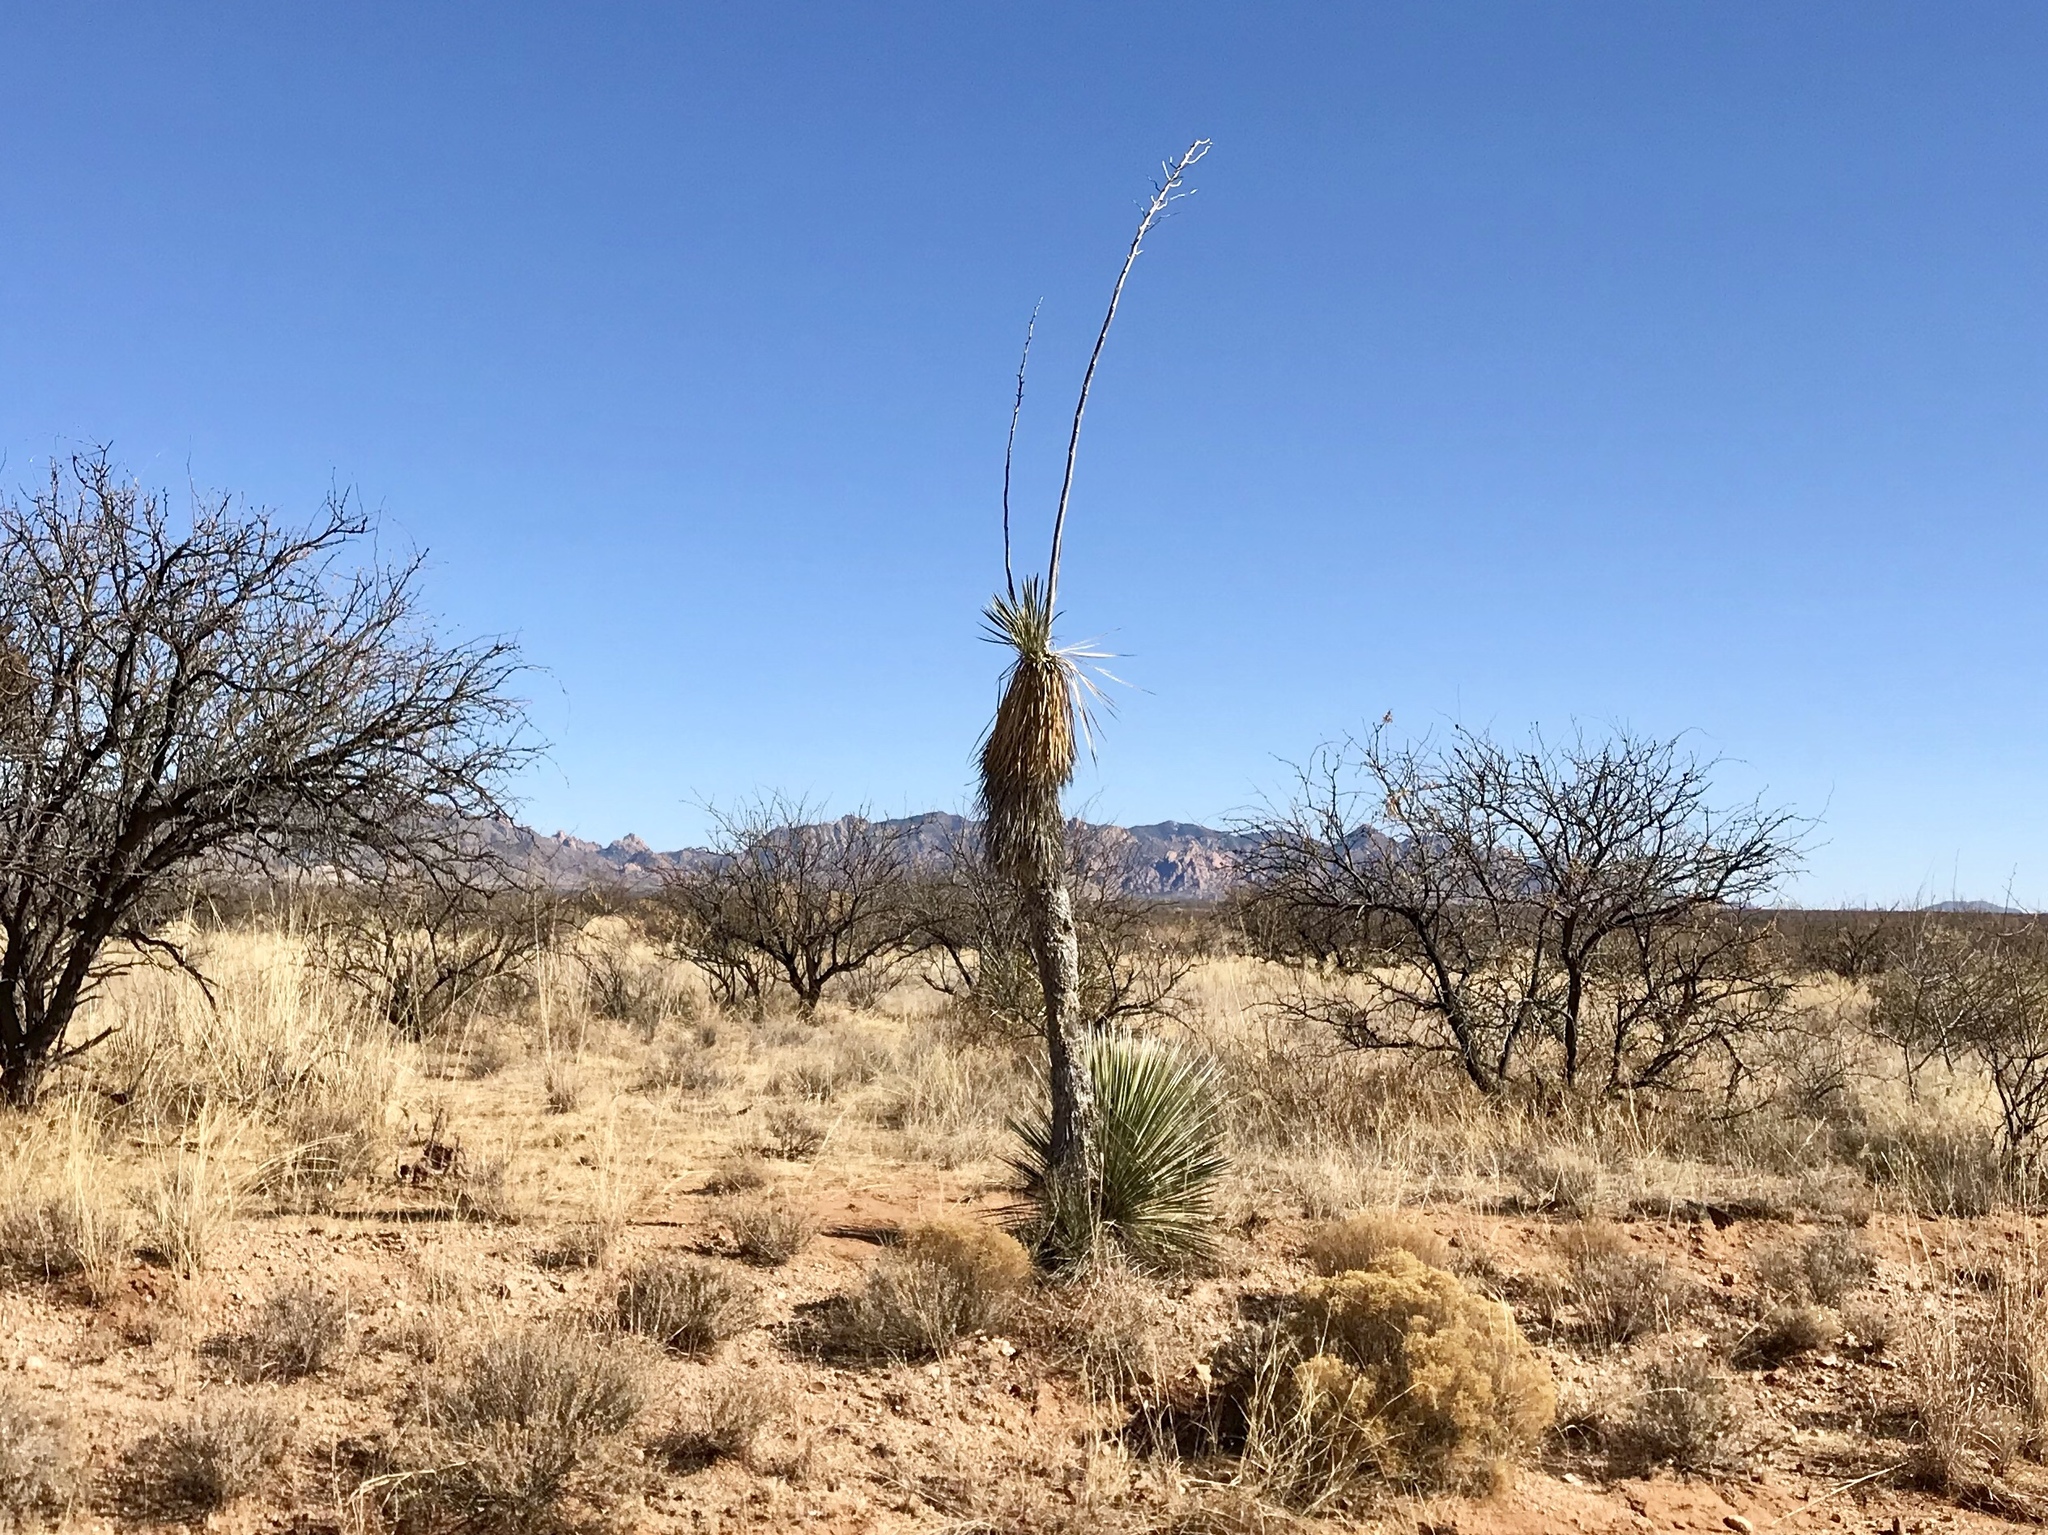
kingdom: Plantae
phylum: Tracheophyta
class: Liliopsida
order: Asparagales
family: Asparagaceae
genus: Yucca
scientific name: Yucca elata
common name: Palmella
